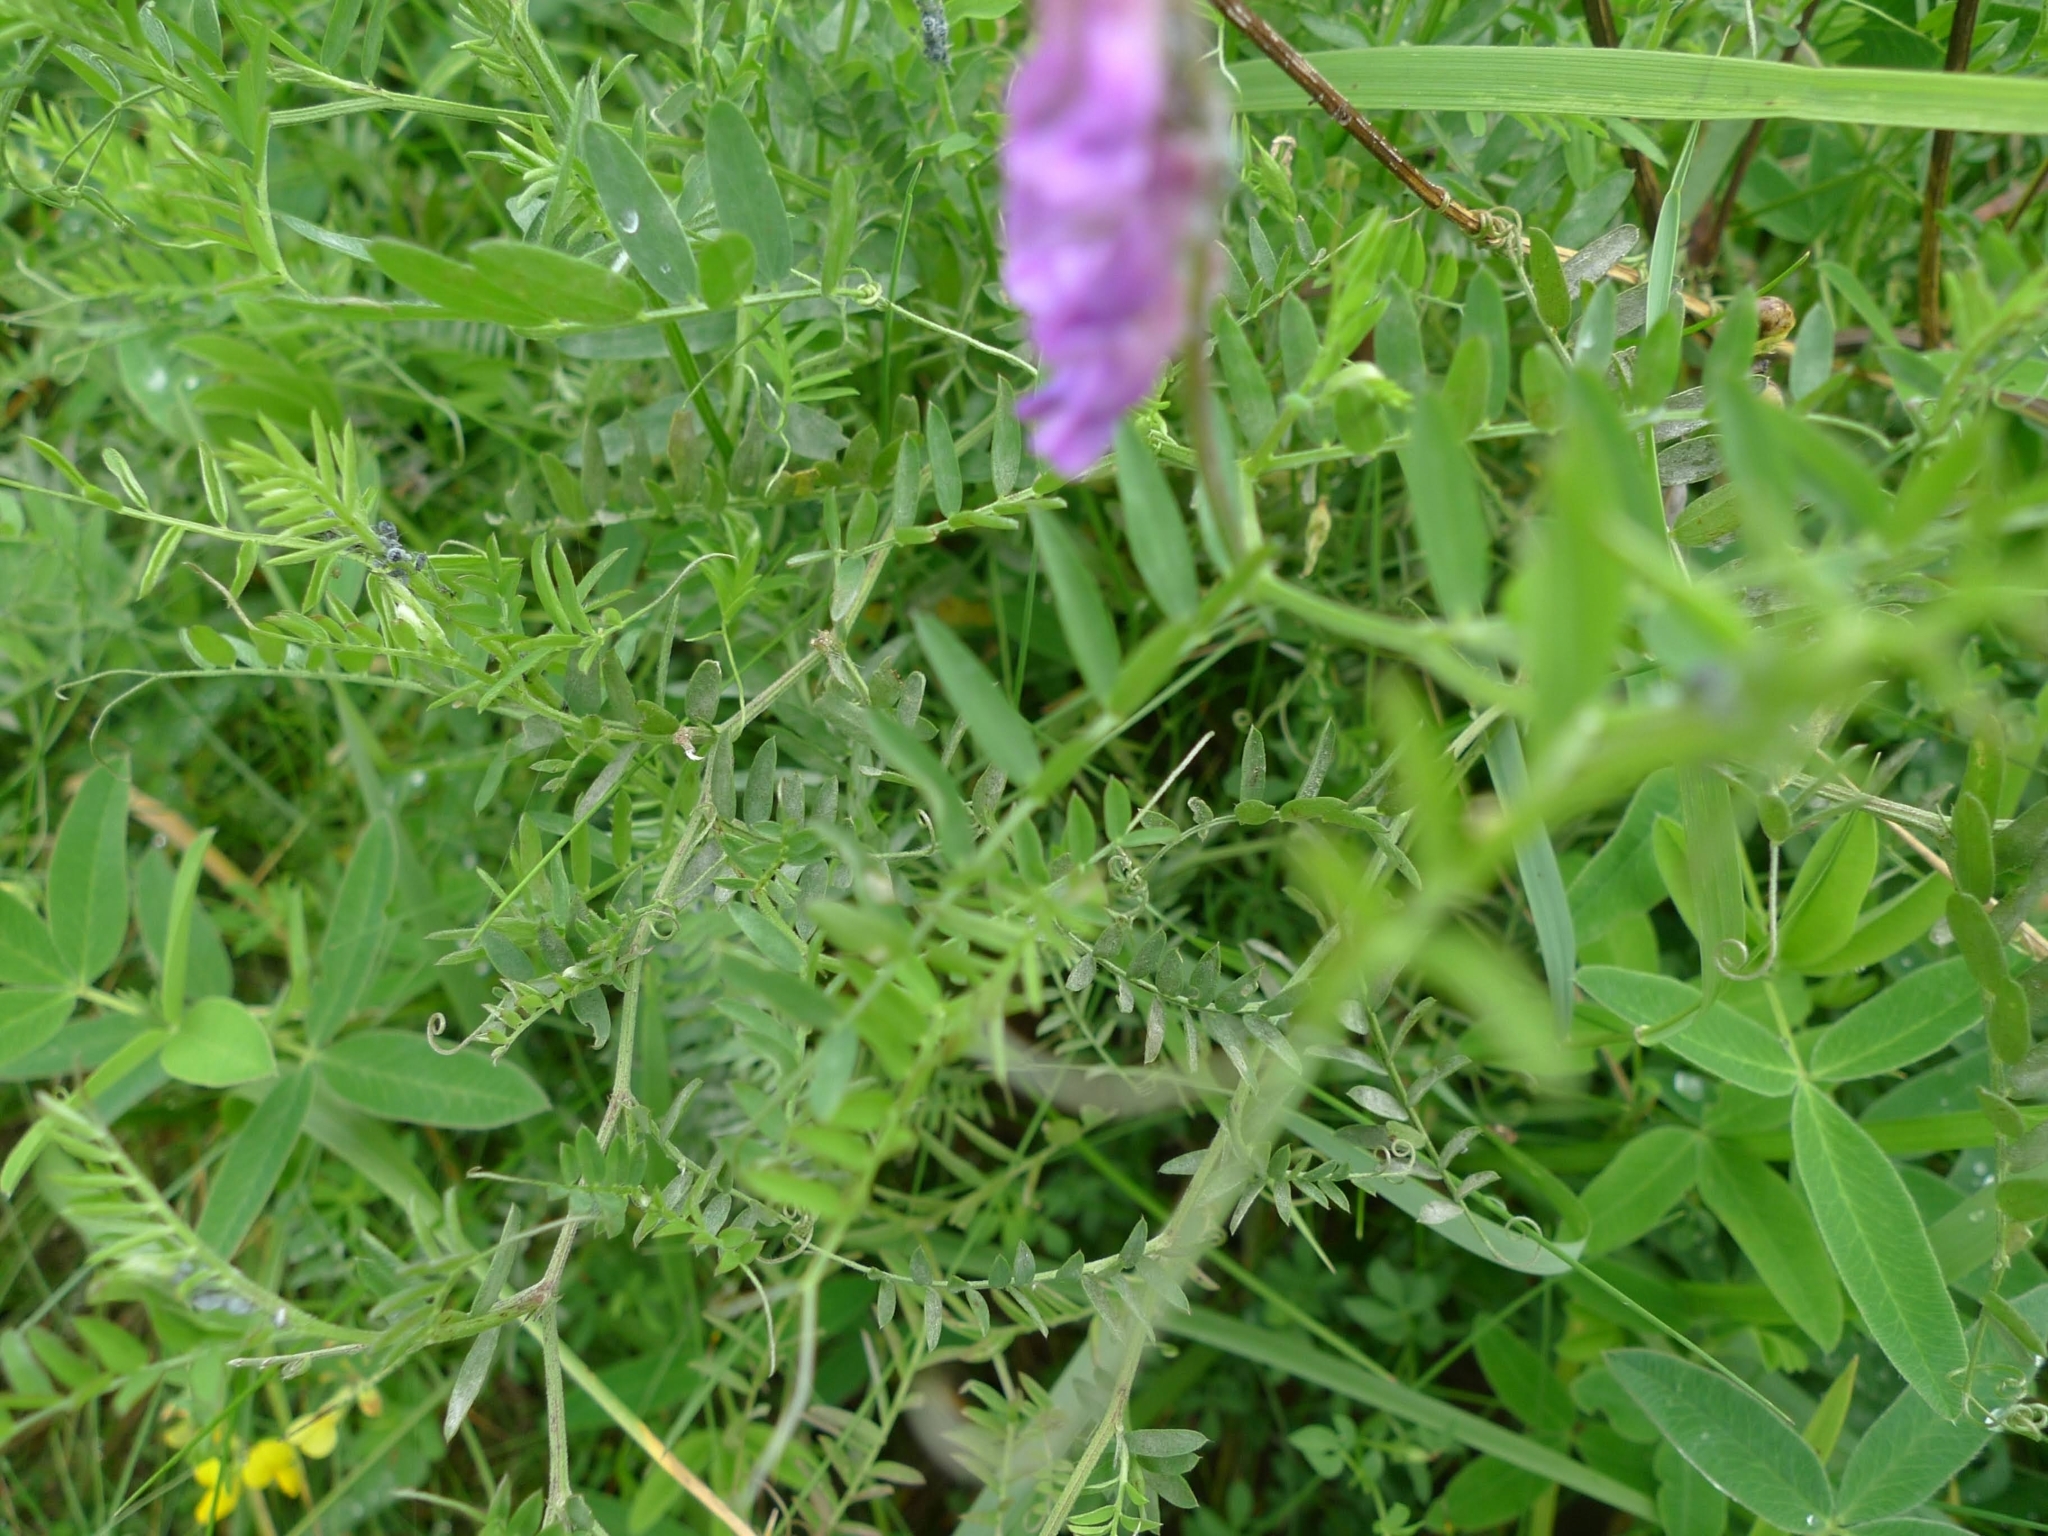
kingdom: Plantae
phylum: Tracheophyta
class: Magnoliopsida
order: Fabales
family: Fabaceae
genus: Vicia
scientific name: Vicia cracca
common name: Bird vetch
